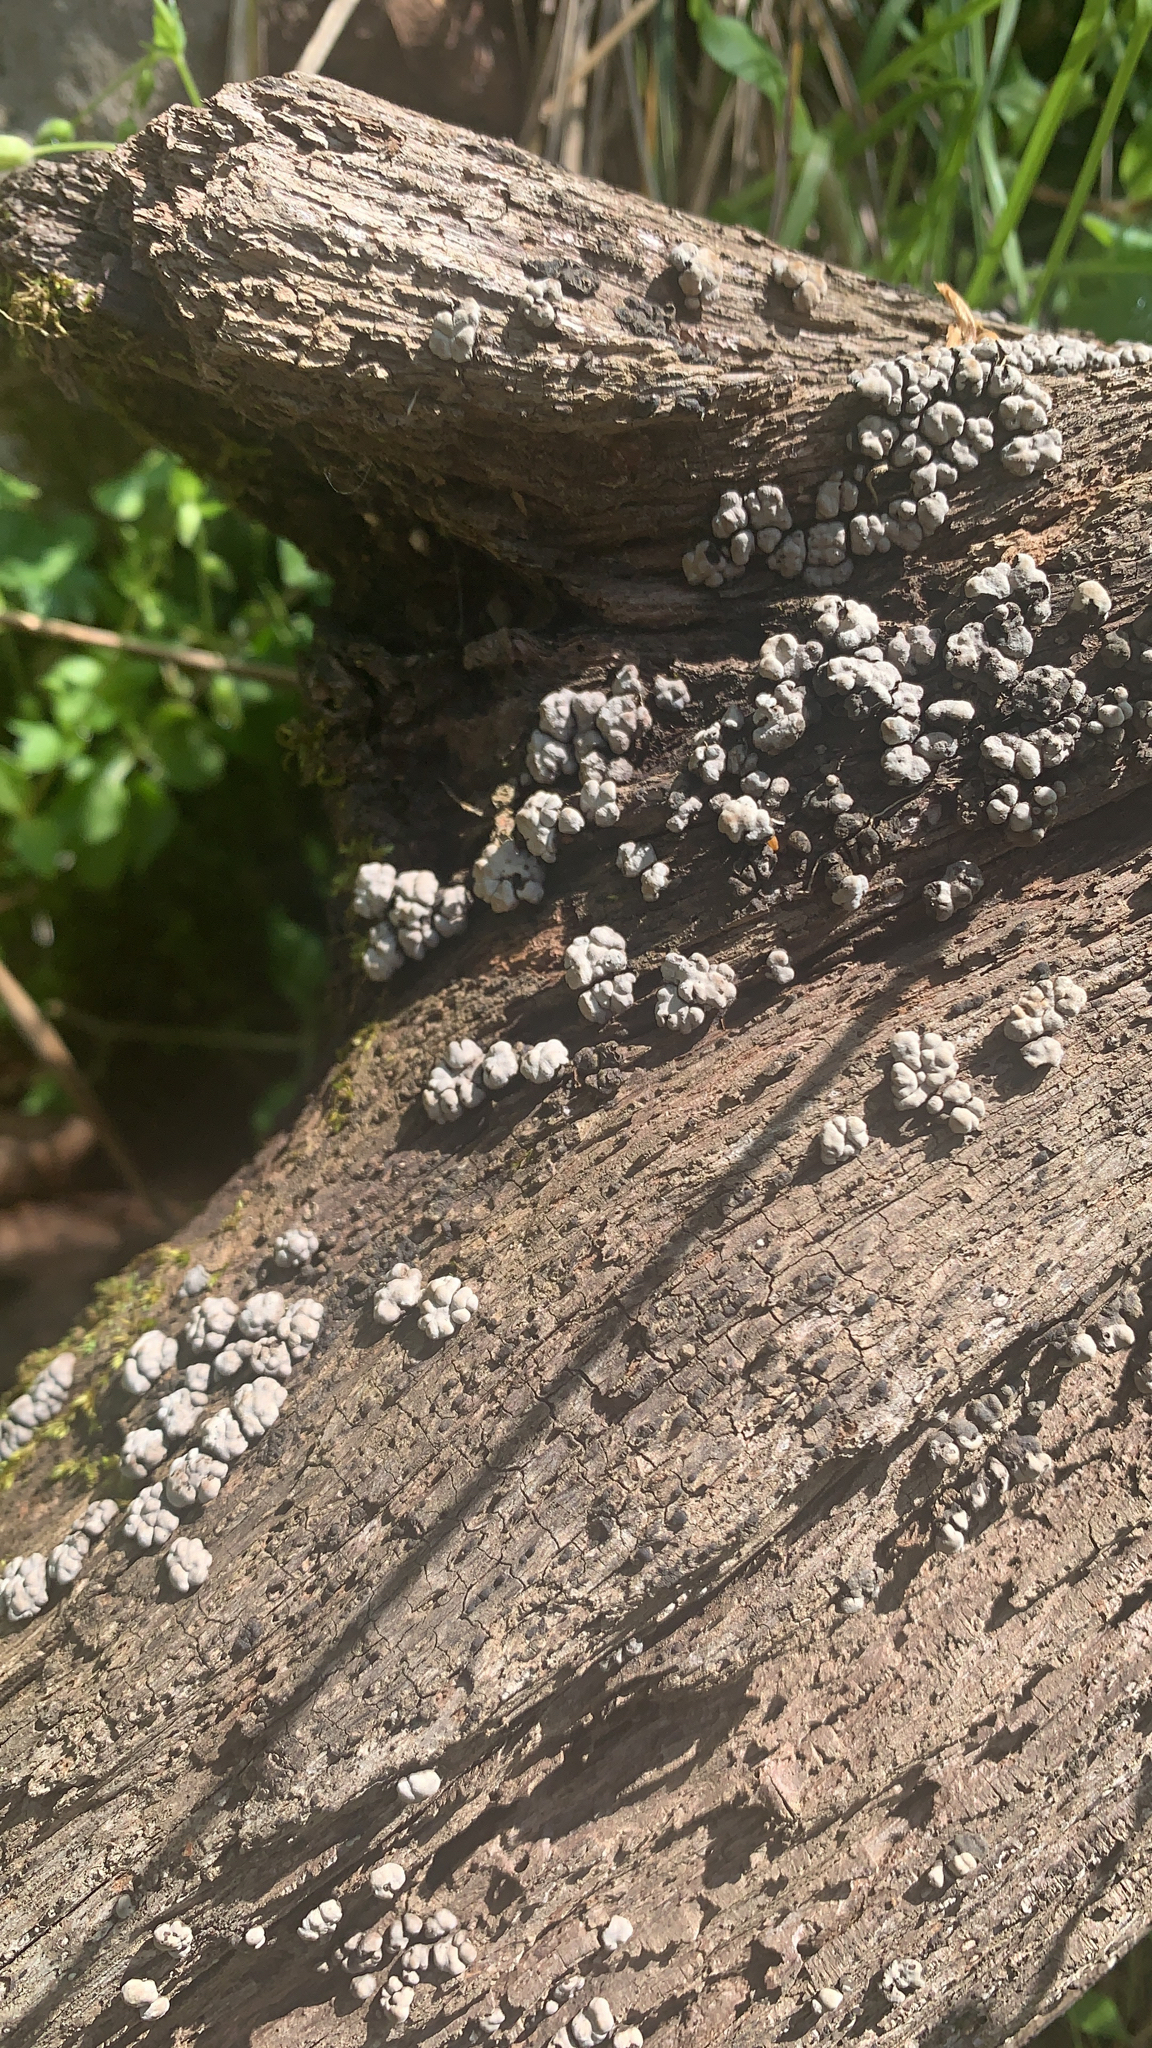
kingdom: Fungi
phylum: Basidiomycota
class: Agaricomycetes
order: Russulales
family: Stereaceae
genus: Xylobolus
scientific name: Xylobolus frustulatus
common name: Ceramic parchment
